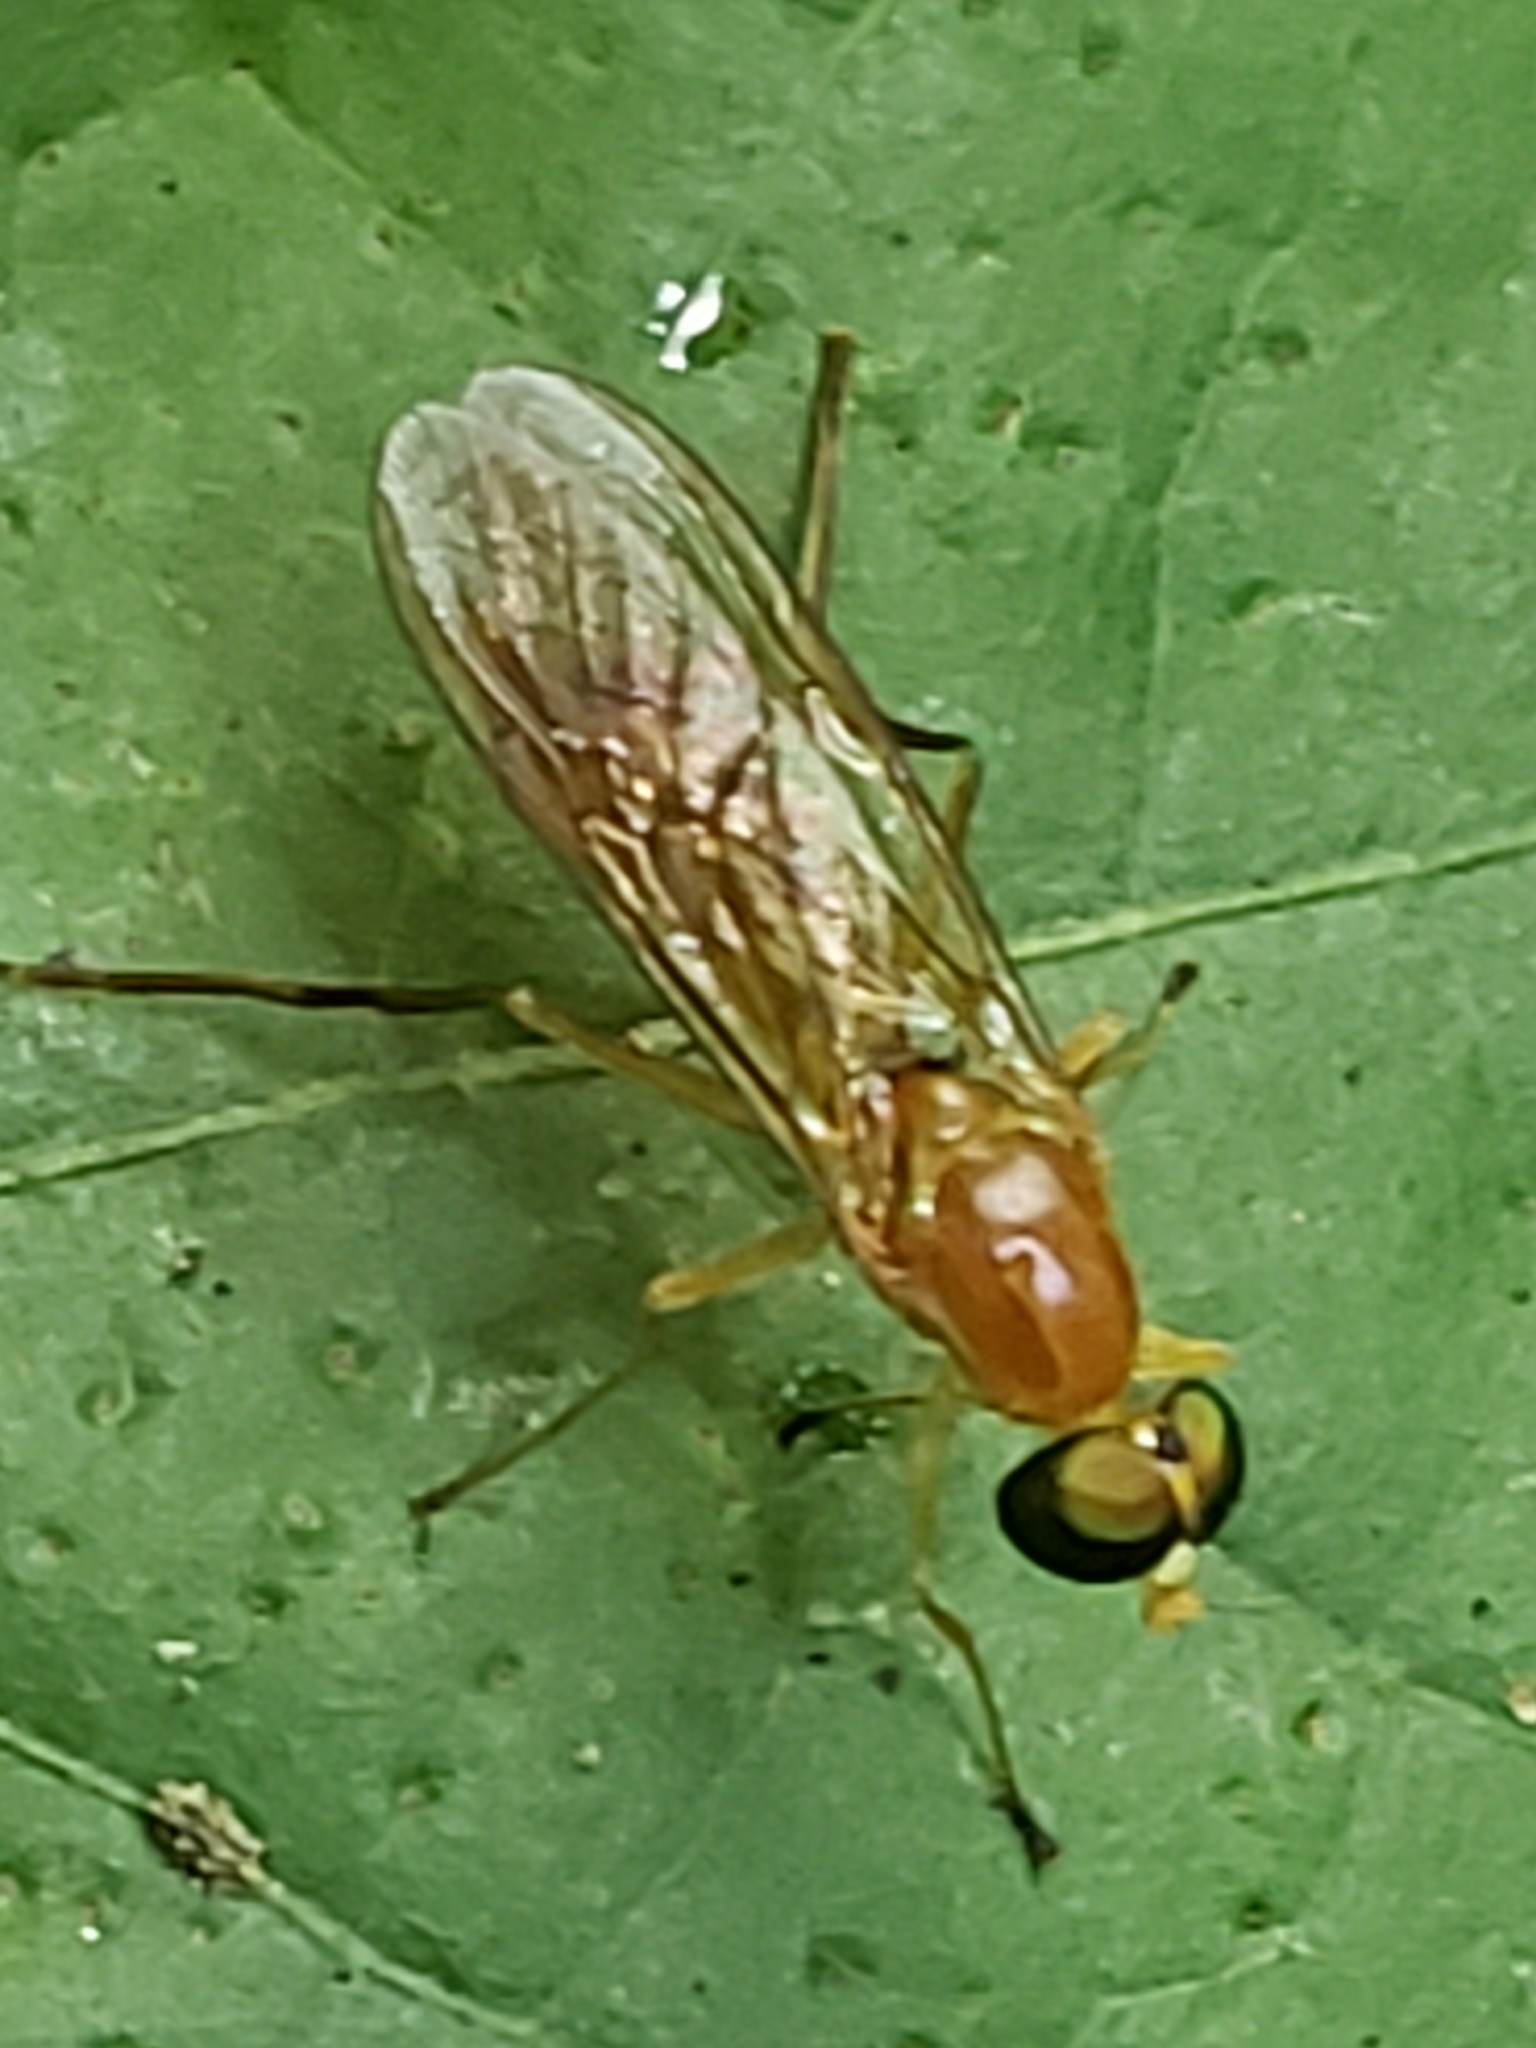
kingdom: Animalia
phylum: Arthropoda
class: Insecta
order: Diptera
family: Stratiomyidae
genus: Ptecticus
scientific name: Ptecticus trivittatus
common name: Compost fly
